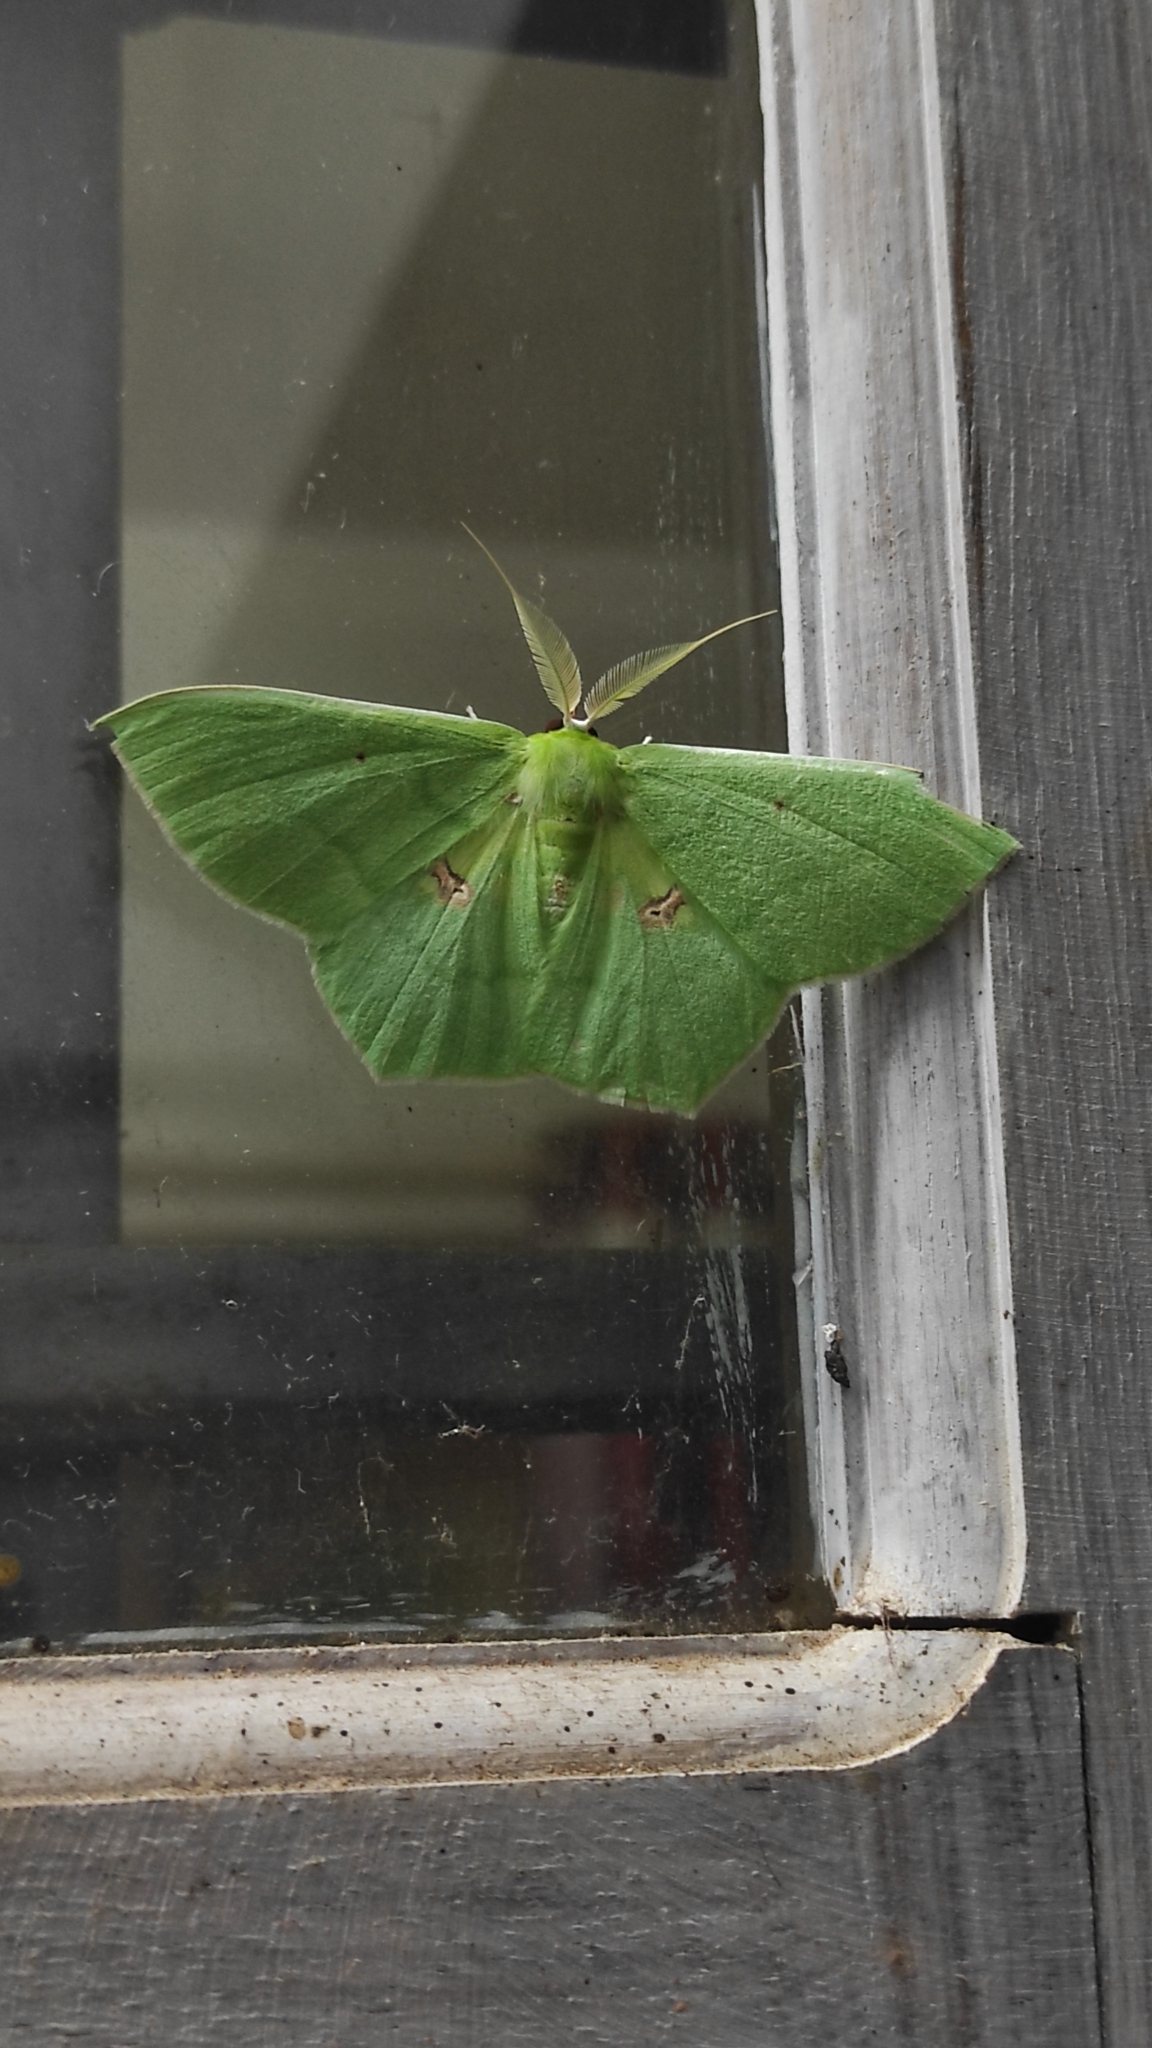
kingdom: Animalia
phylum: Arthropoda
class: Insecta
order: Lepidoptera
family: Geometridae
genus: Aporandria
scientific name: Aporandria specularia
